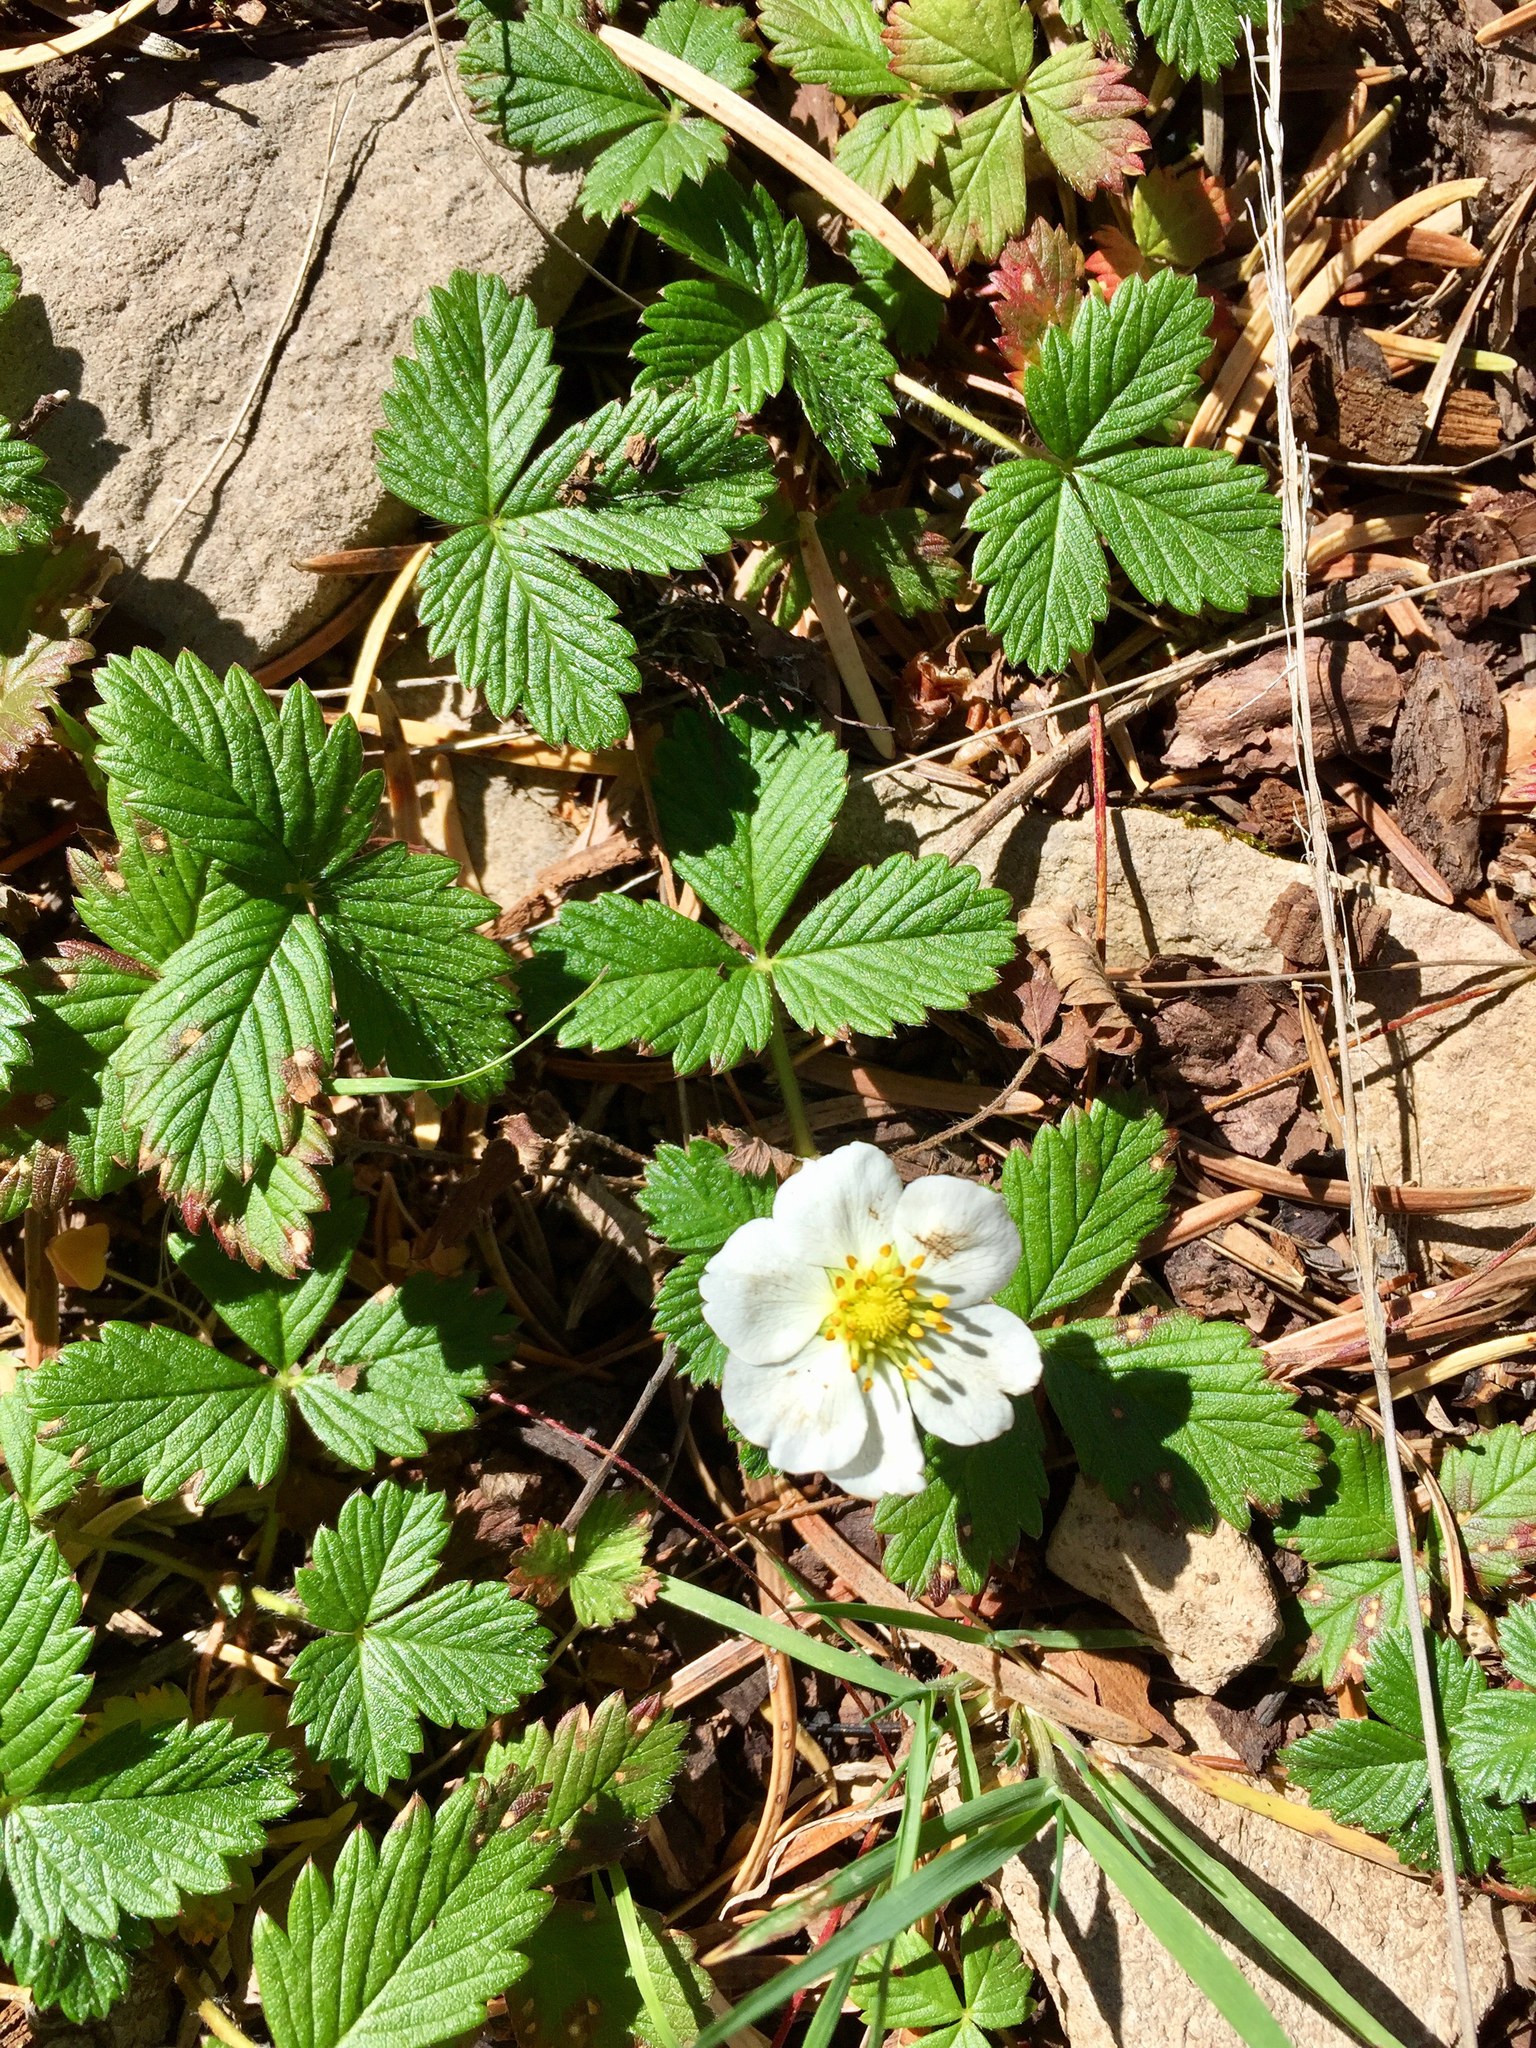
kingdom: Plantae
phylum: Tracheophyta
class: Magnoliopsida
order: Rosales
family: Rosaceae
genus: Fragaria
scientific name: Fragaria vesca
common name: Wild strawberry
